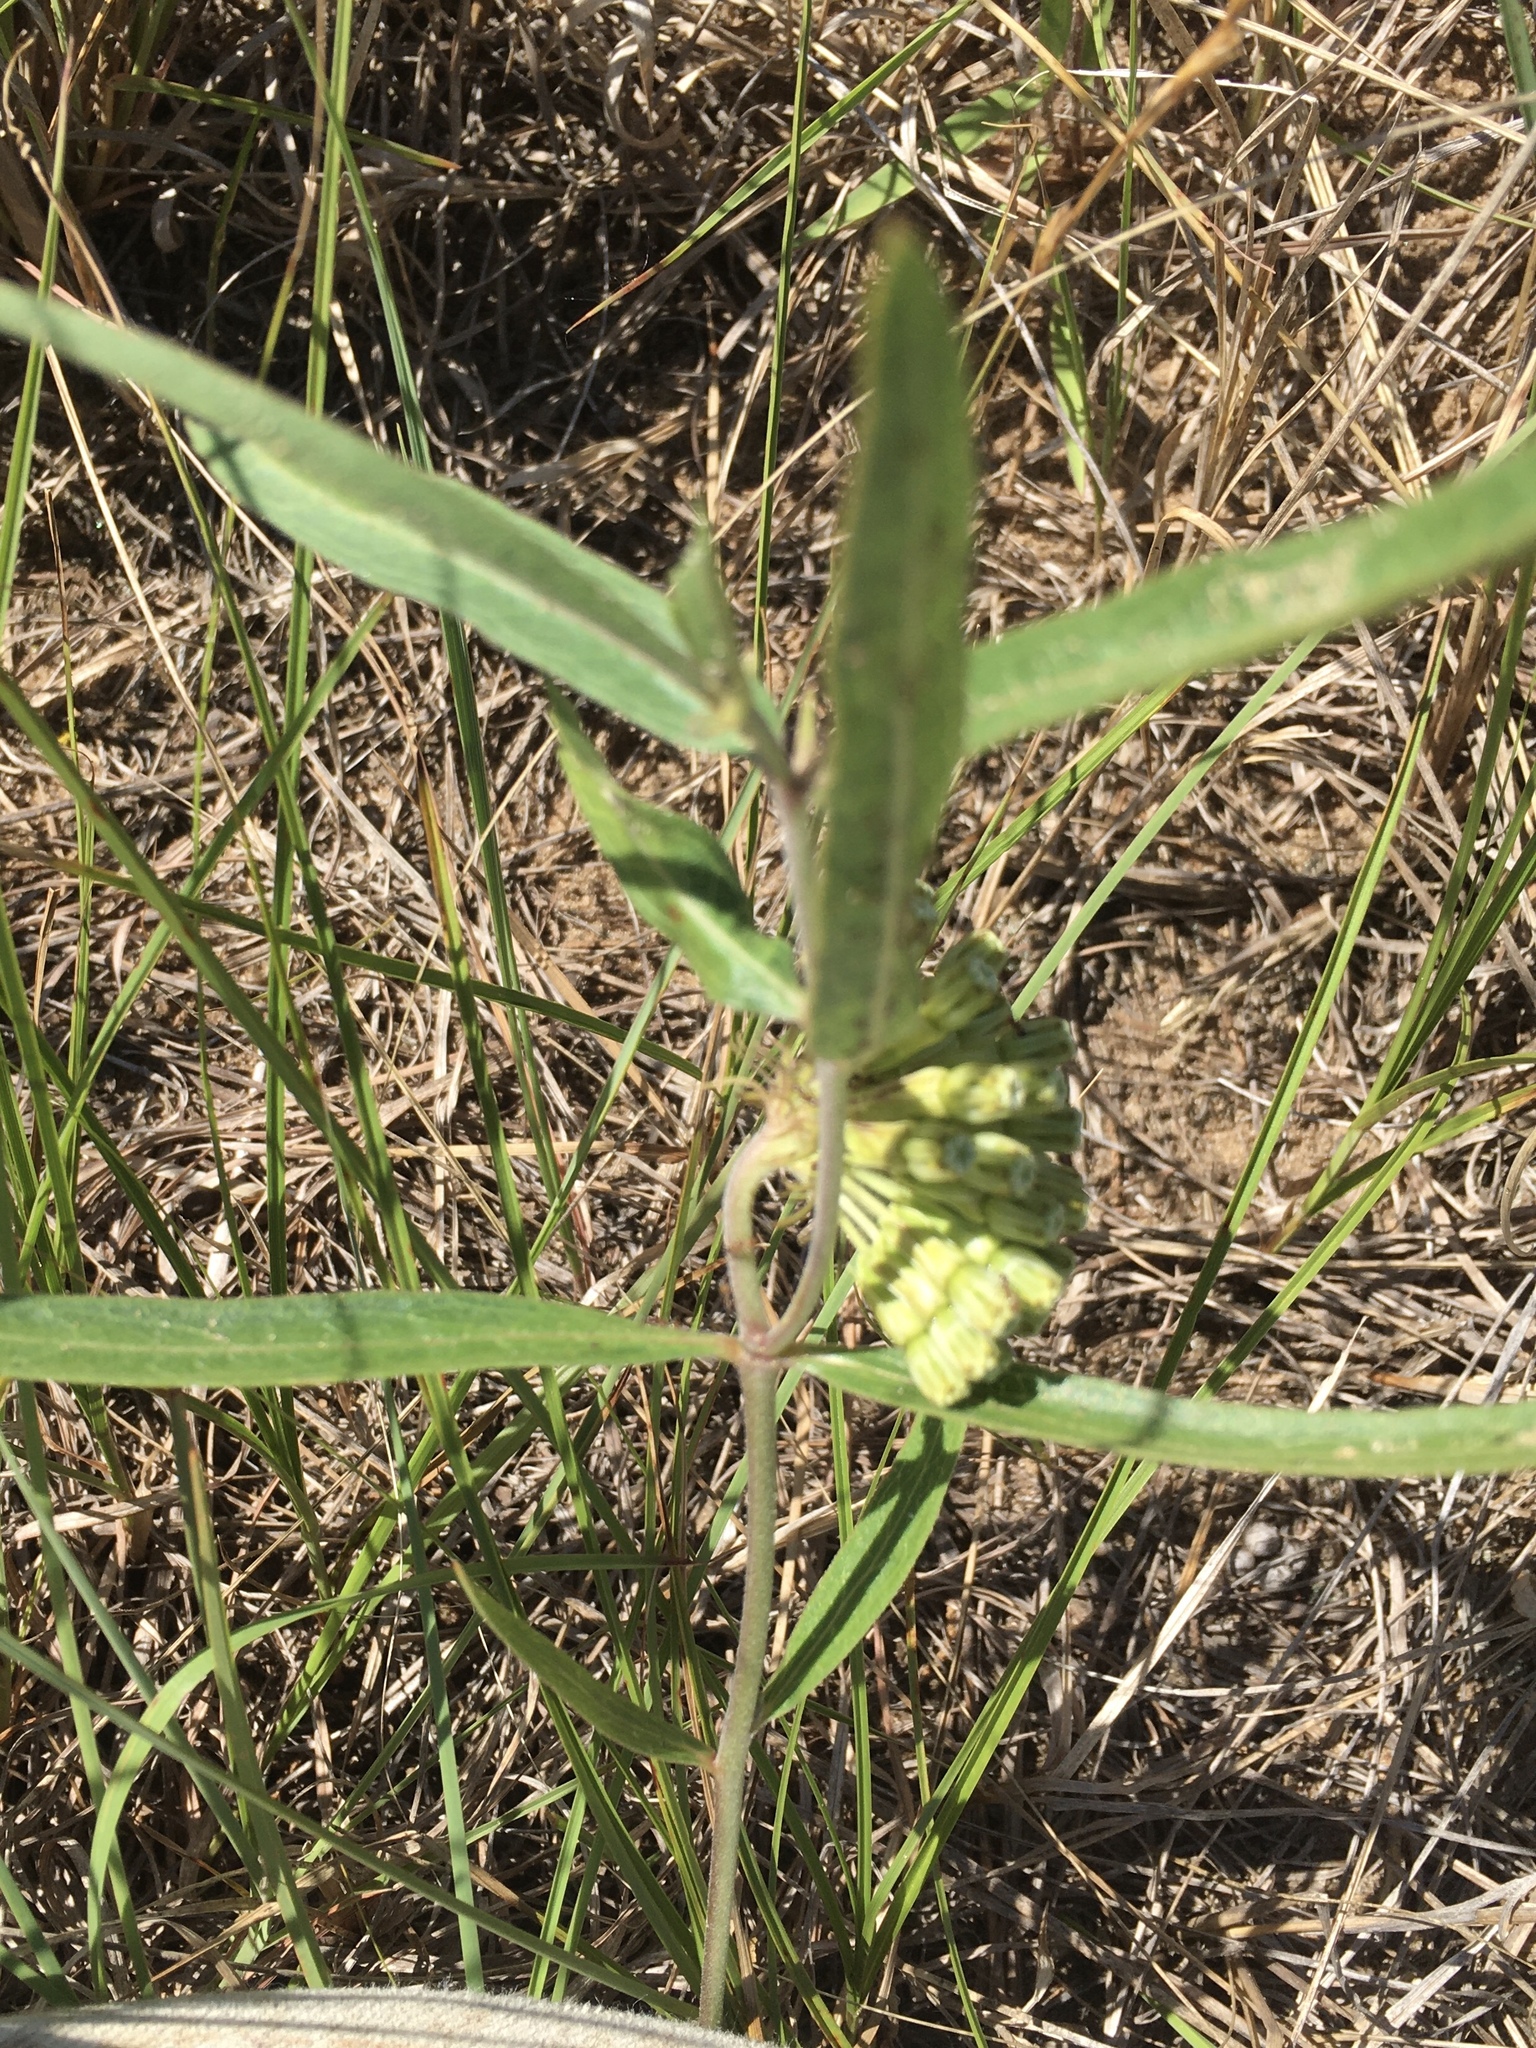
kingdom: Plantae
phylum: Tracheophyta
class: Magnoliopsida
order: Gentianales
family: Apocynaceae
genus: Asclepias
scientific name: Asclepias viridiflora
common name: Green comet milkweed
